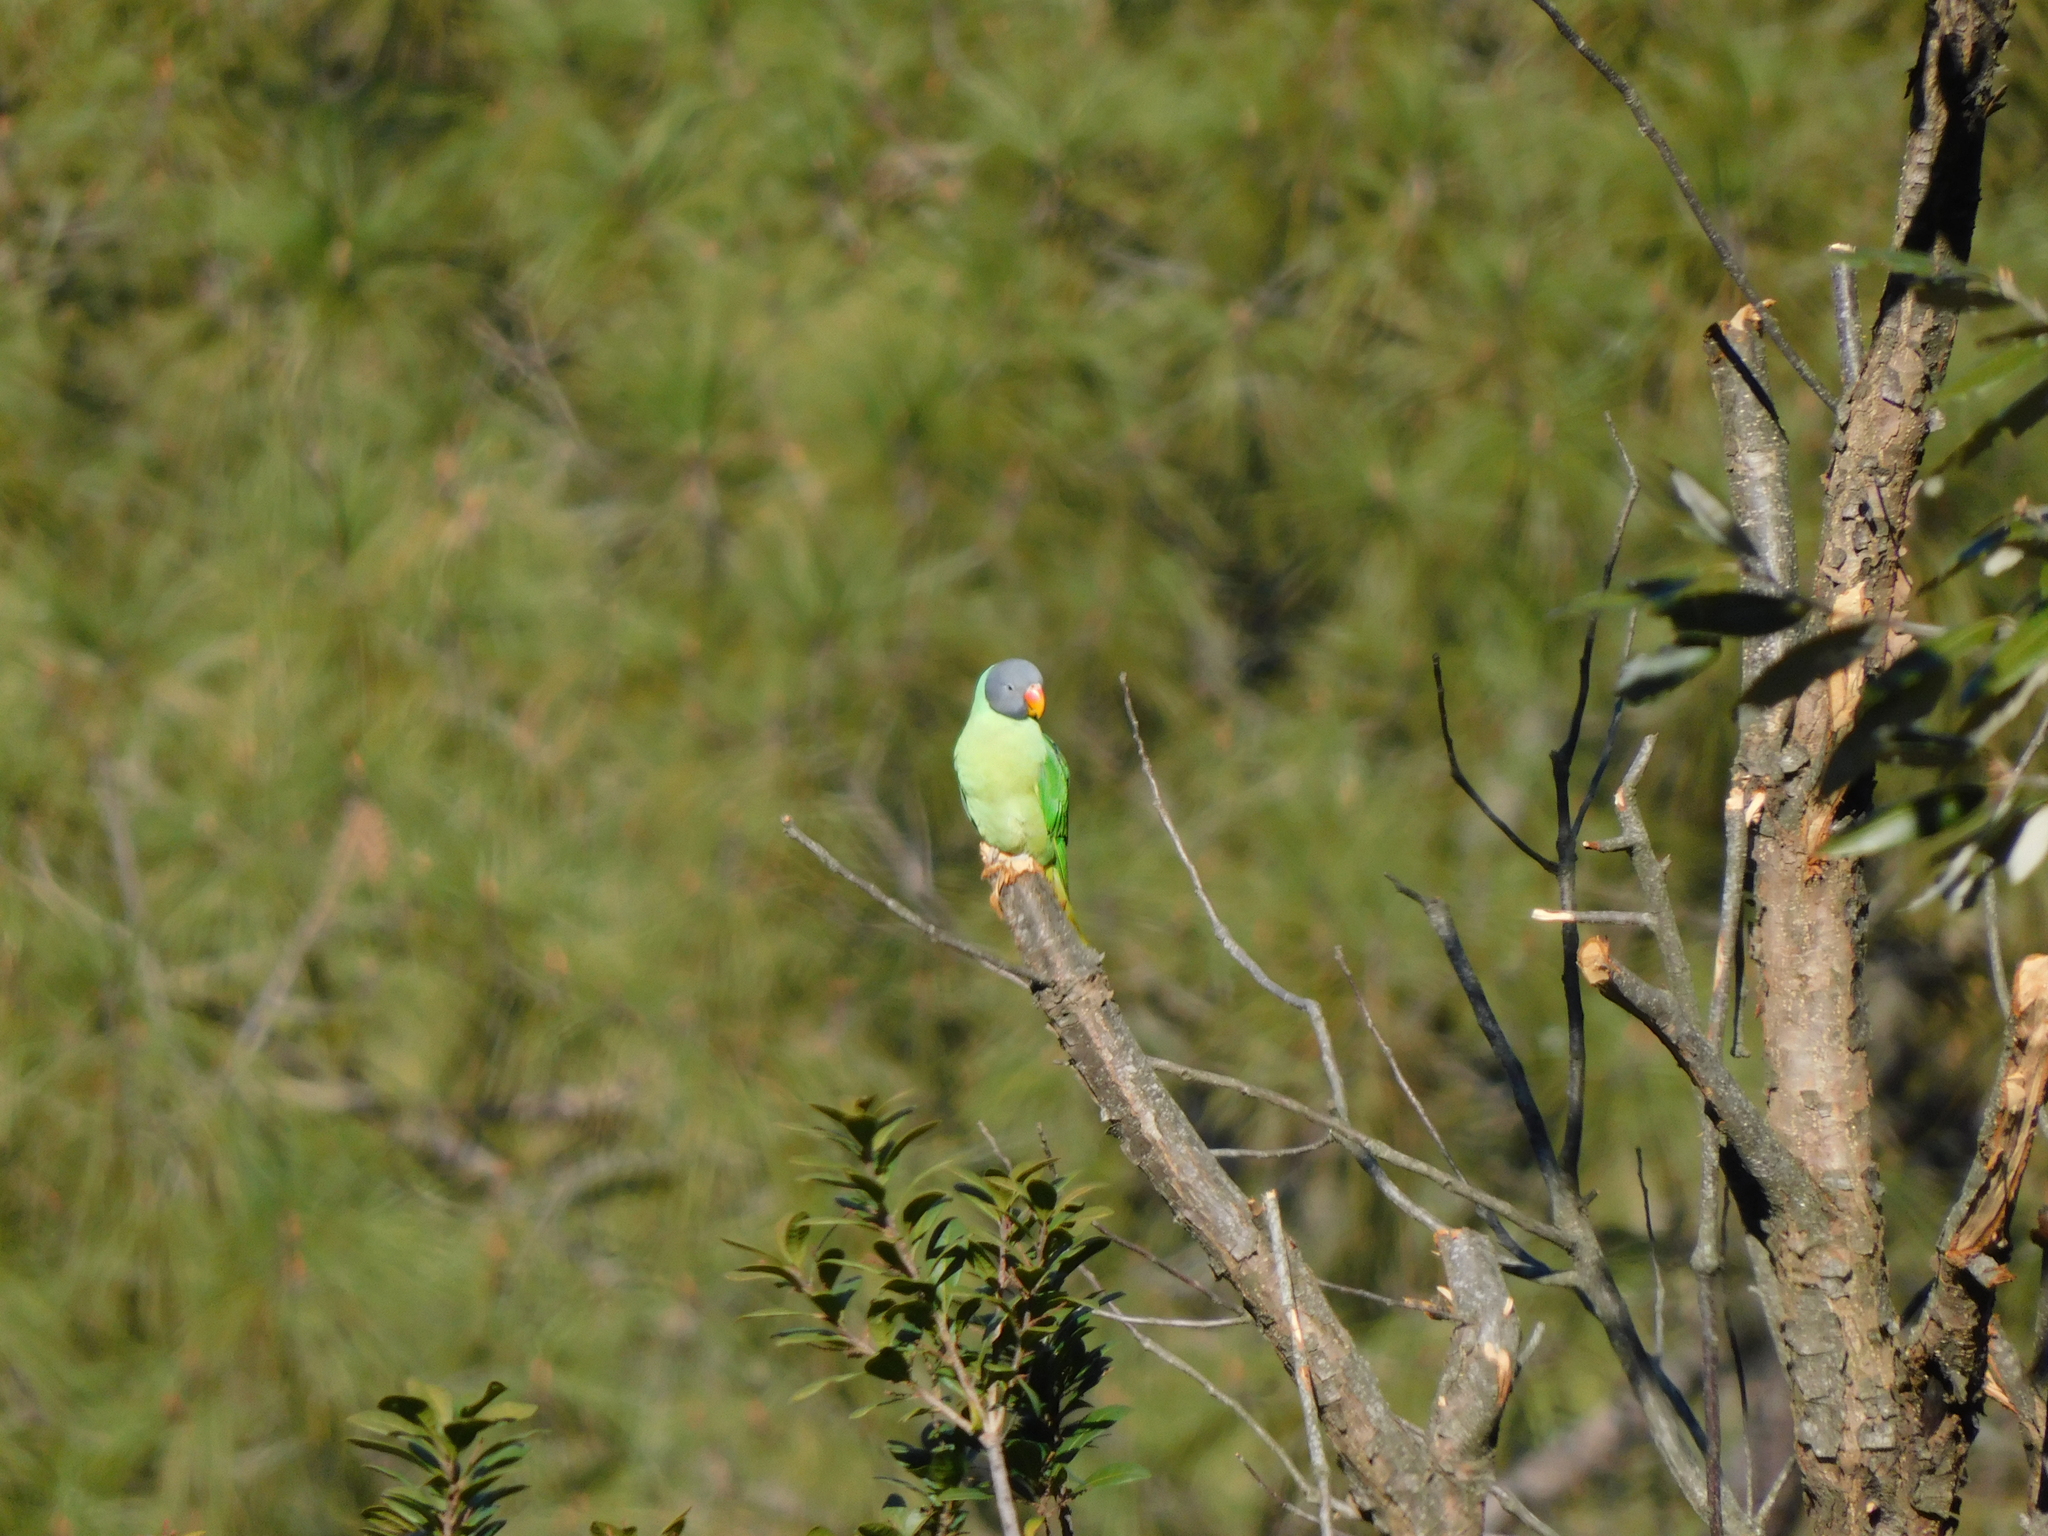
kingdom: Animalia
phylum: Chordata
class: Aves
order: Psittaciformes
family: Psittacidae
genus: Psittacula
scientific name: Psittacula himalayana
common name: Slaty-headed parakeet
